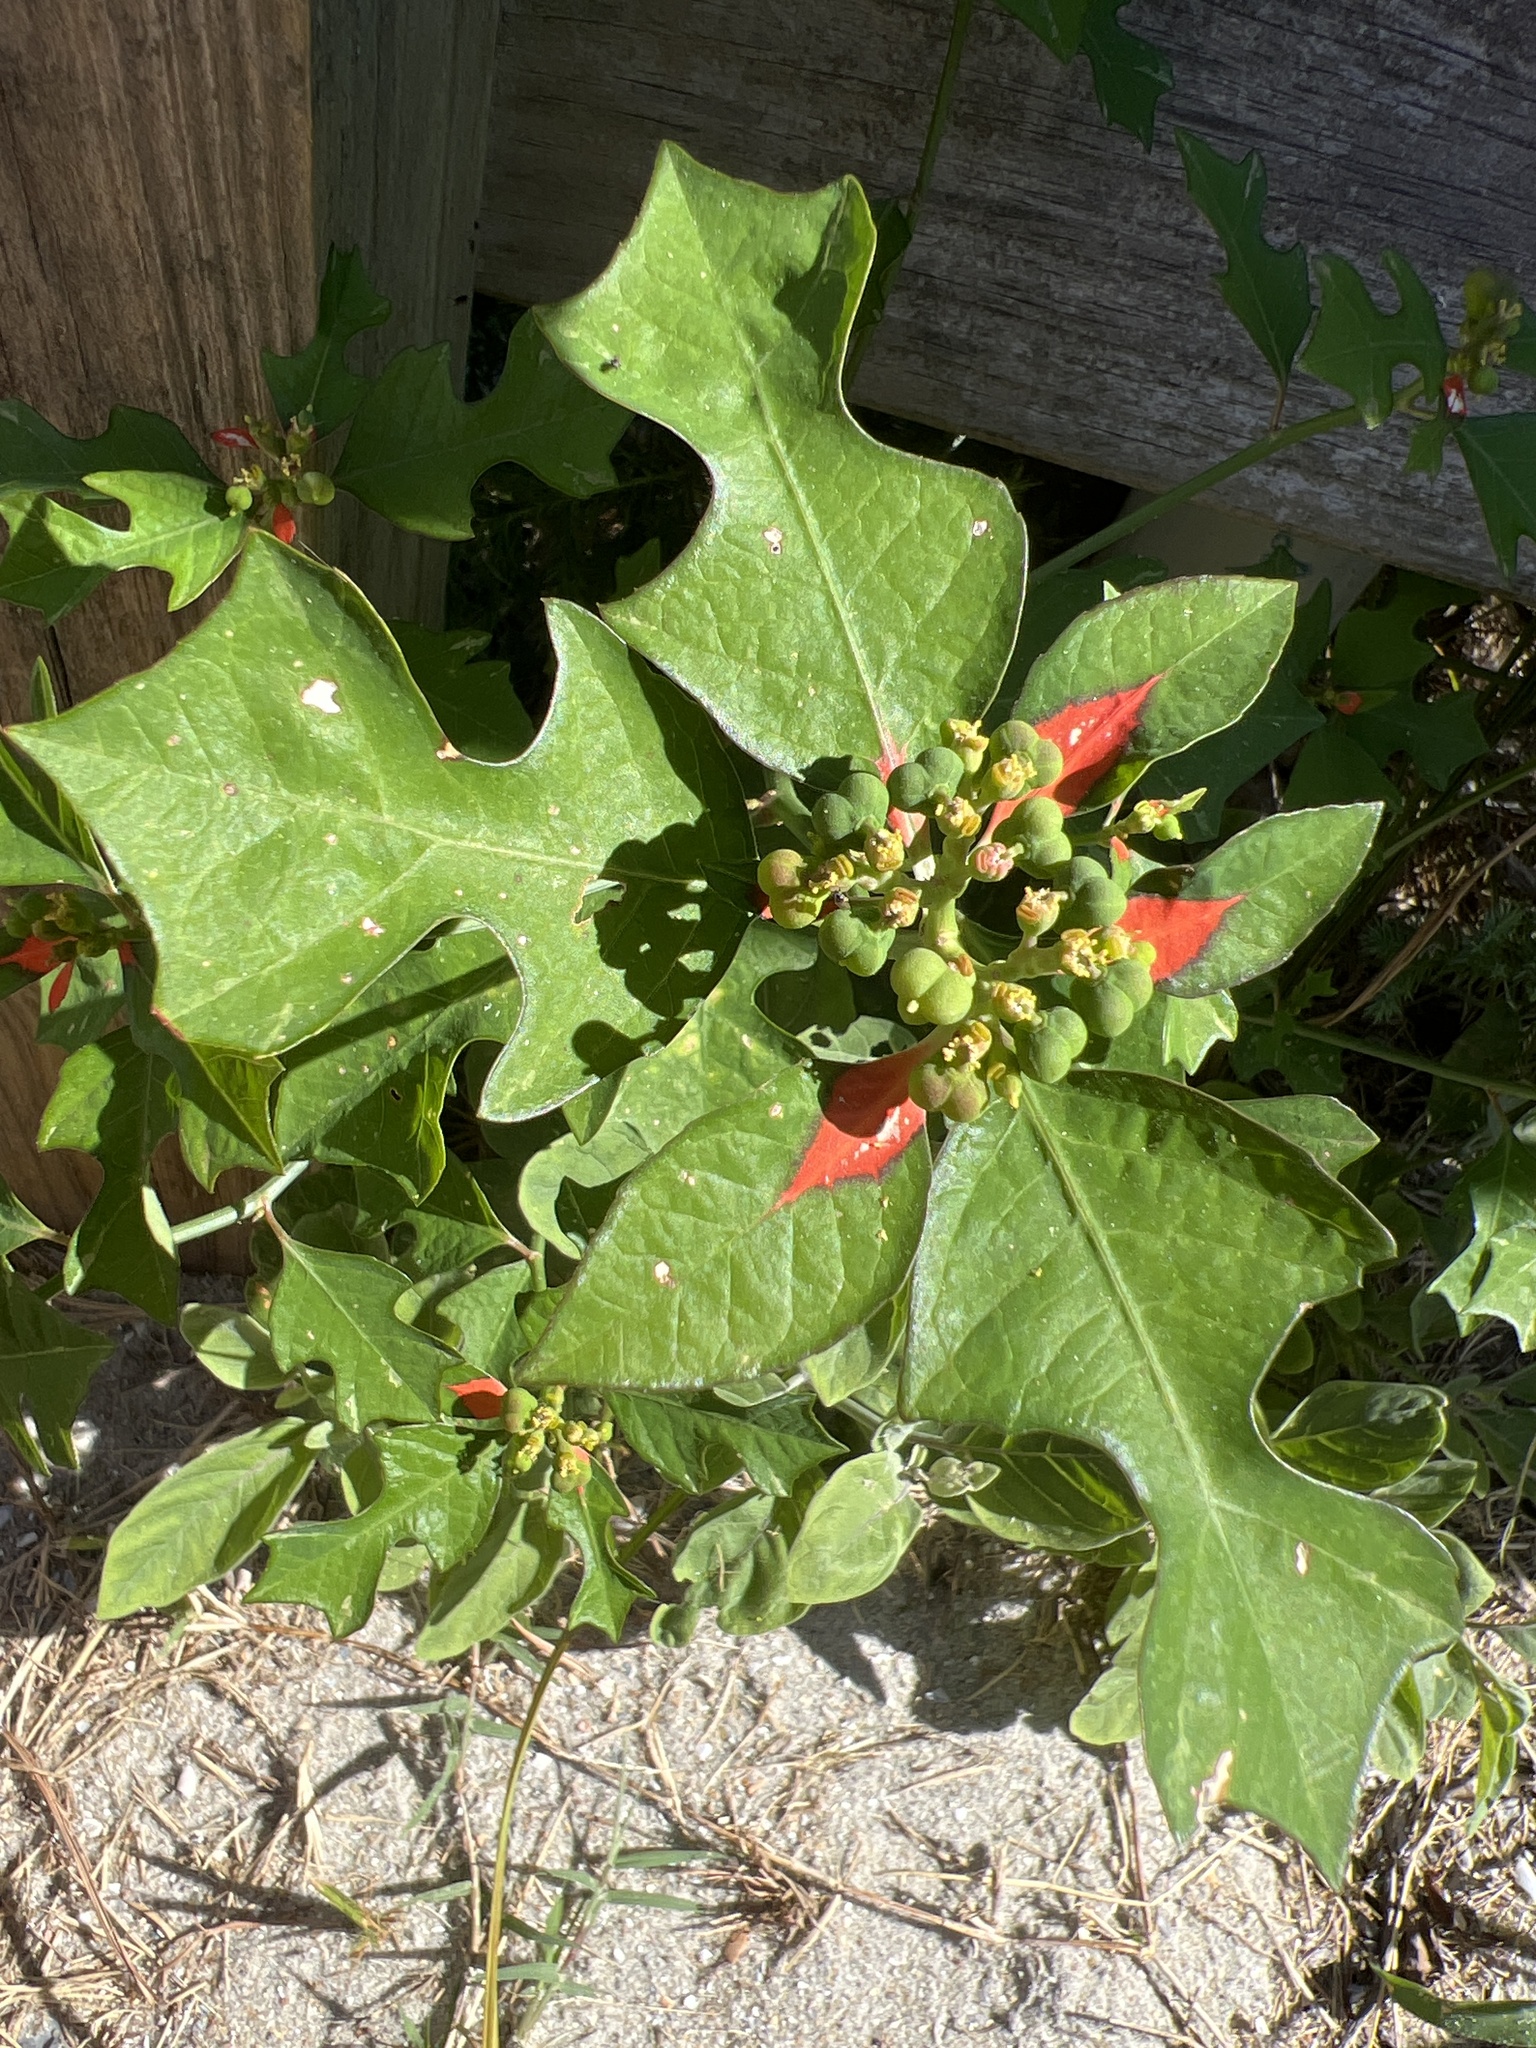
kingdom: Plantae
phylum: Tracheophyta
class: Magnoliopsida
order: Malpighiales
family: Euphorbiaceae
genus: Euphorbia
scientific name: Euphorbia heterophylla
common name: Mexican fireplant
